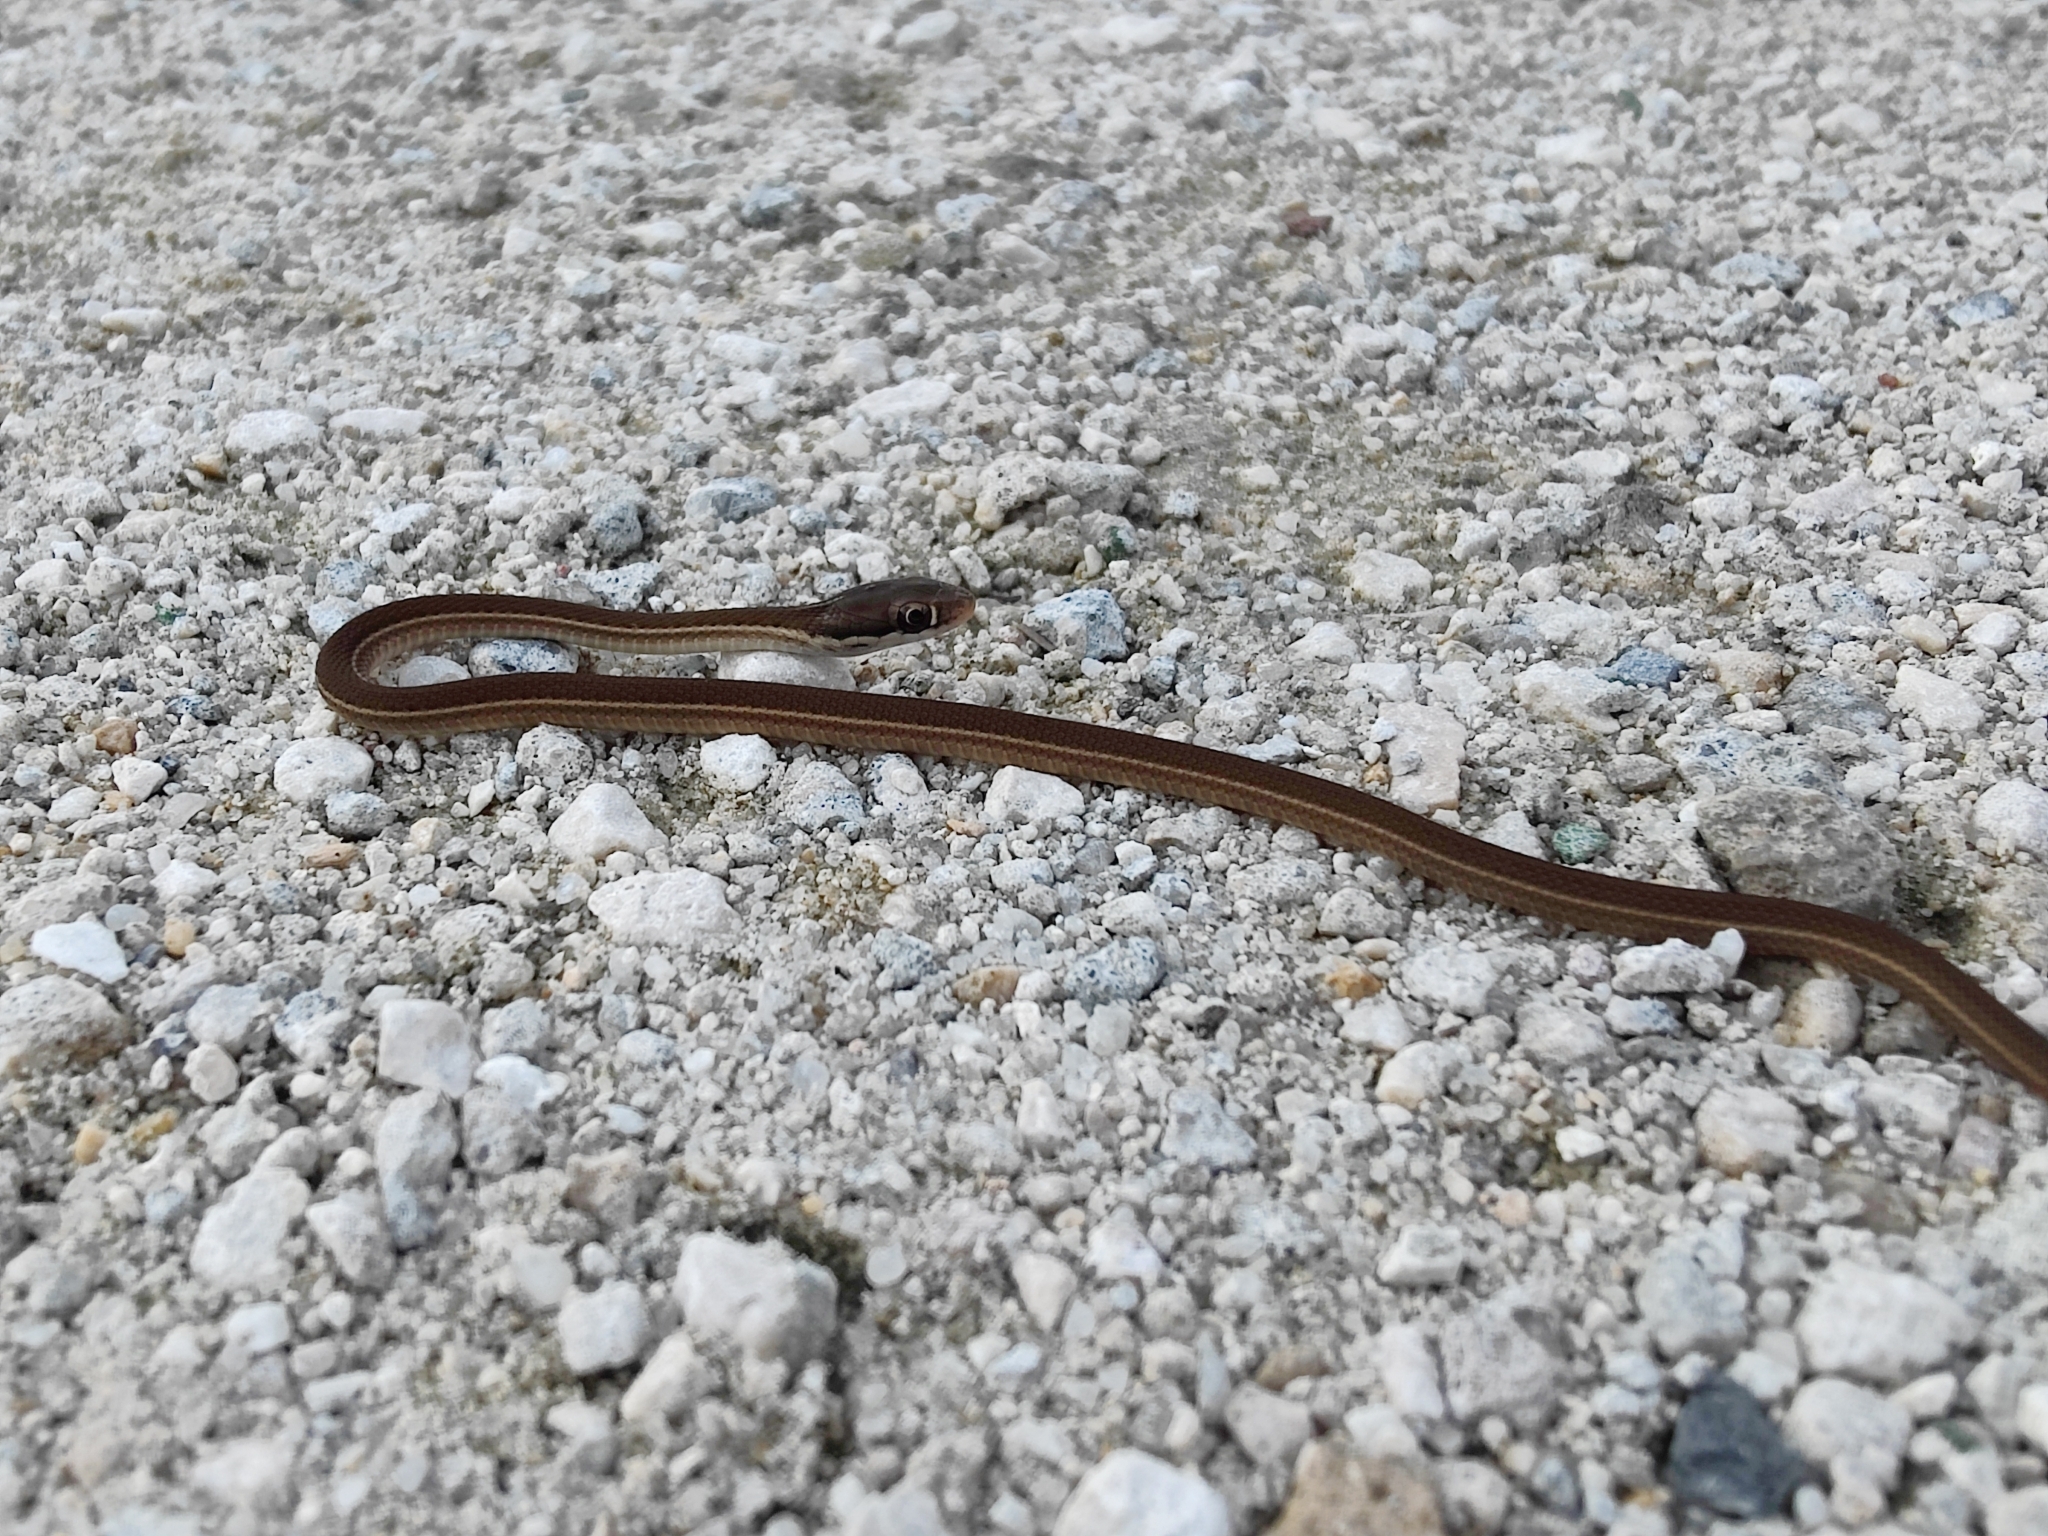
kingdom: Animalia
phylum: Chordata
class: Squamata
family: Colubridae
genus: Thamnophis
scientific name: Thamnophis saurita
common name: Eastern ribbonsnake
